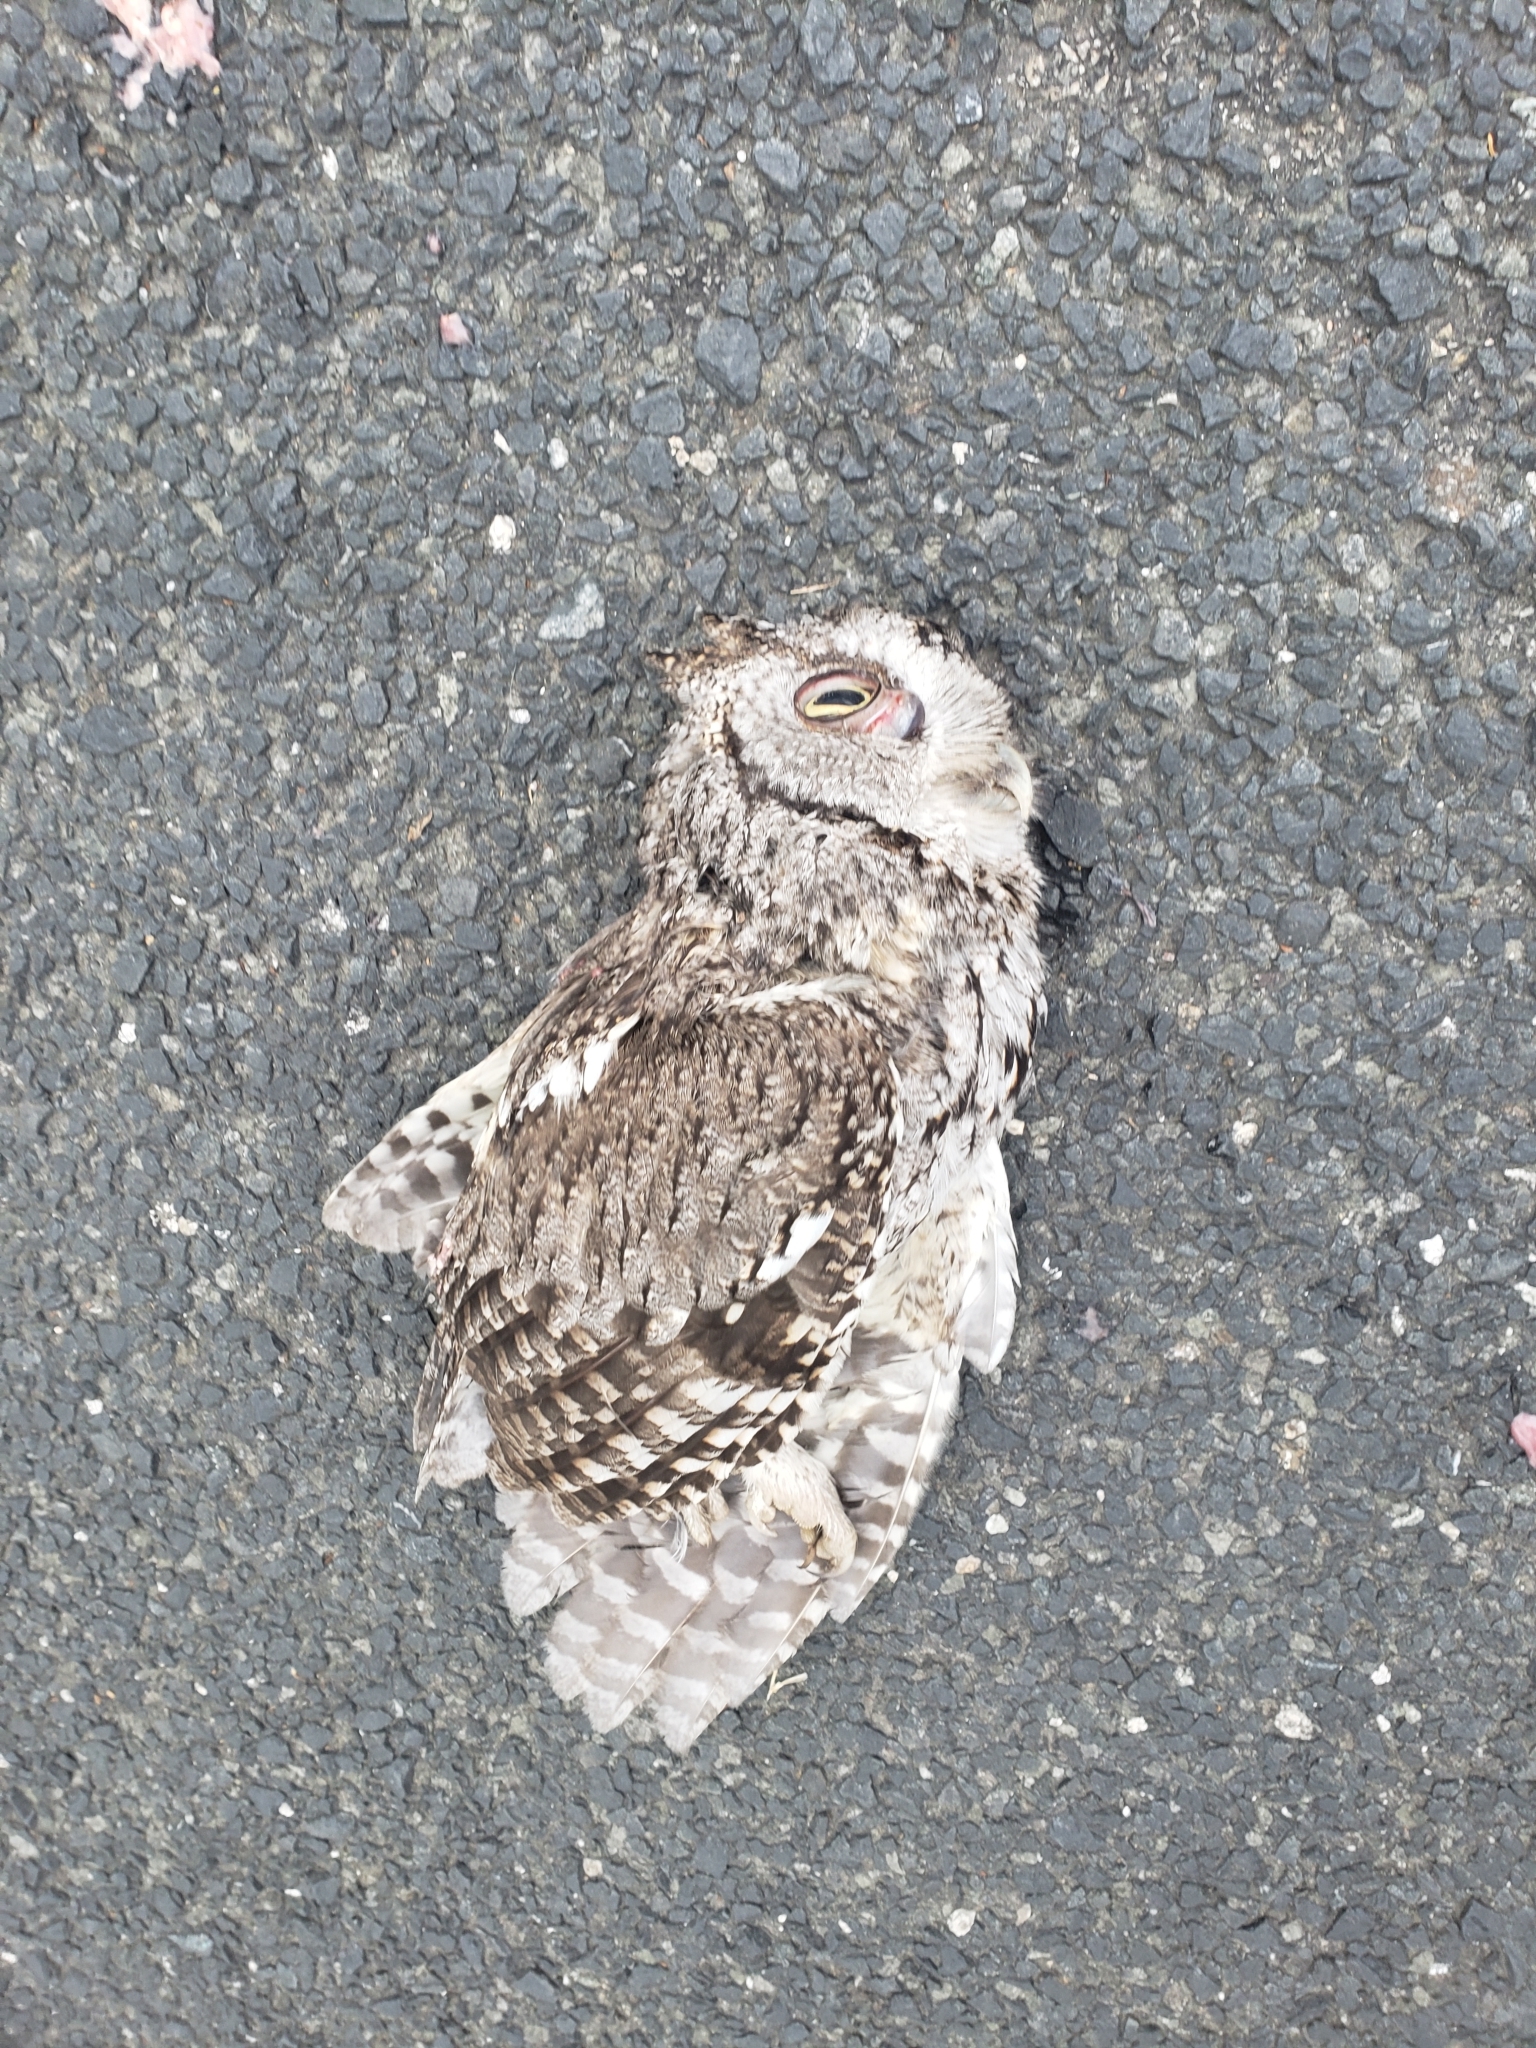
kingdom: Animalia
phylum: Chordata
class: Aves
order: Strigiformes
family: Strigidae
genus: Megascops
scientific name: Megascops asio
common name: Eastern screech-owl
